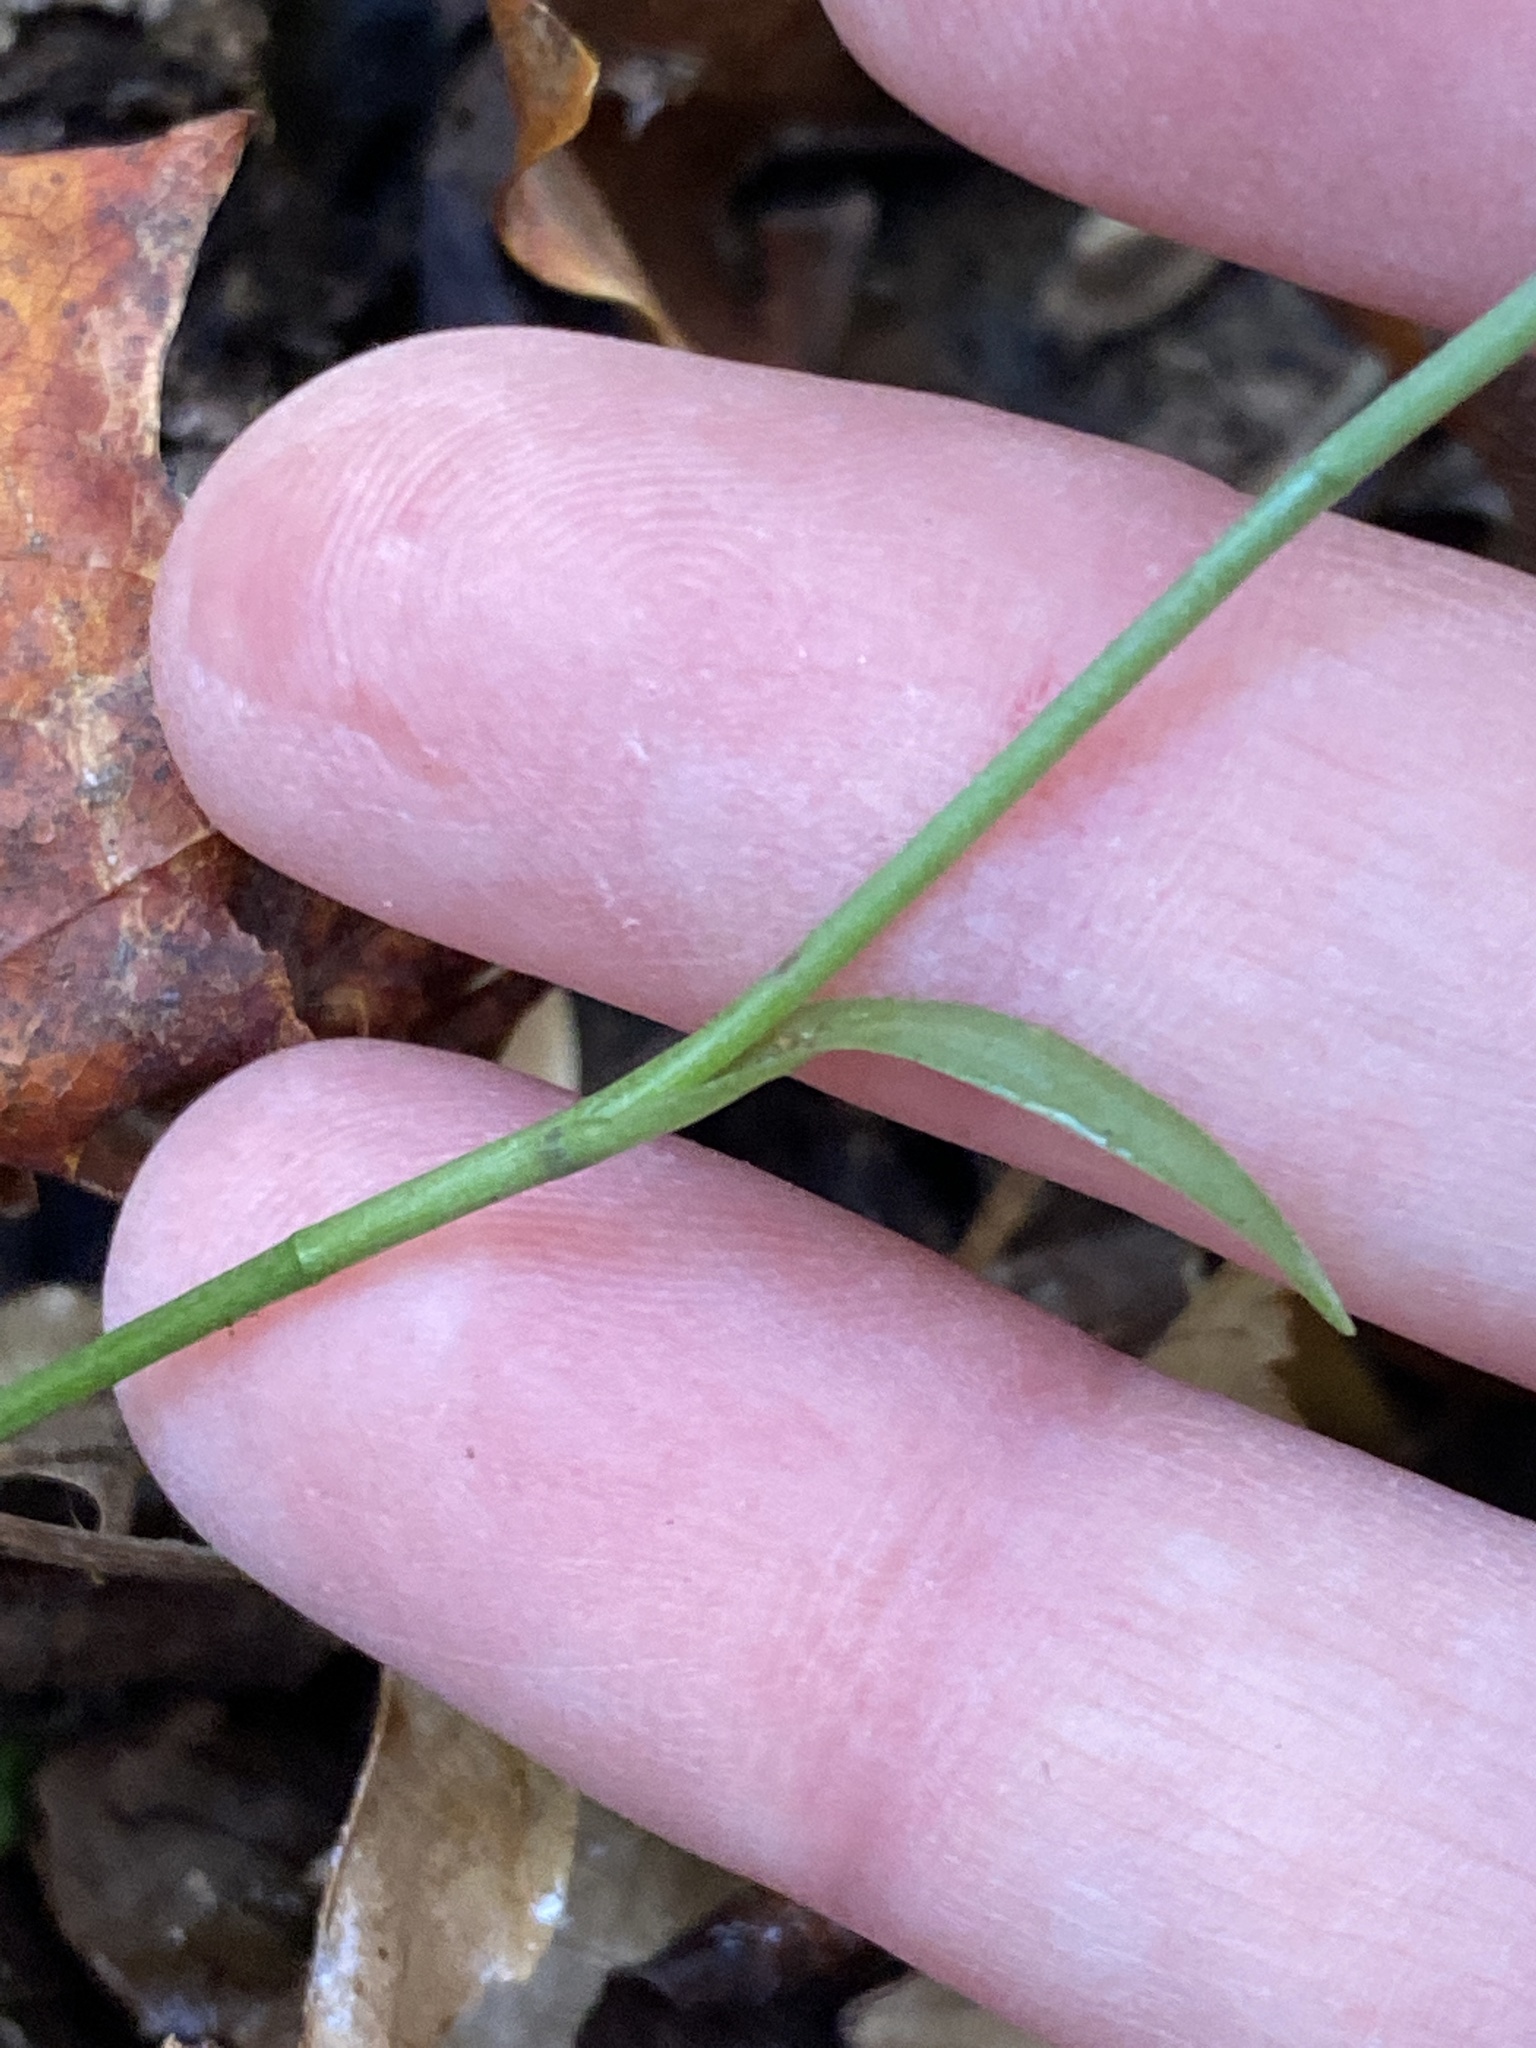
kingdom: Plantae
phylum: Tracheophyta
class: Liliopsida
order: Asparagales
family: Orchidaceae
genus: Spiranthes
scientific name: Spiranthes ovalis
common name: October ladies'-tresses
